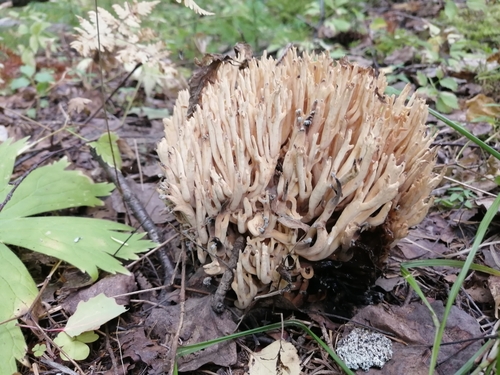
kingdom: Fungi
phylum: Basidiomycota
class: Agaricomycetes
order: Gomphales
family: Gomphaceae
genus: Ramaria
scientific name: Ramaria pallida
